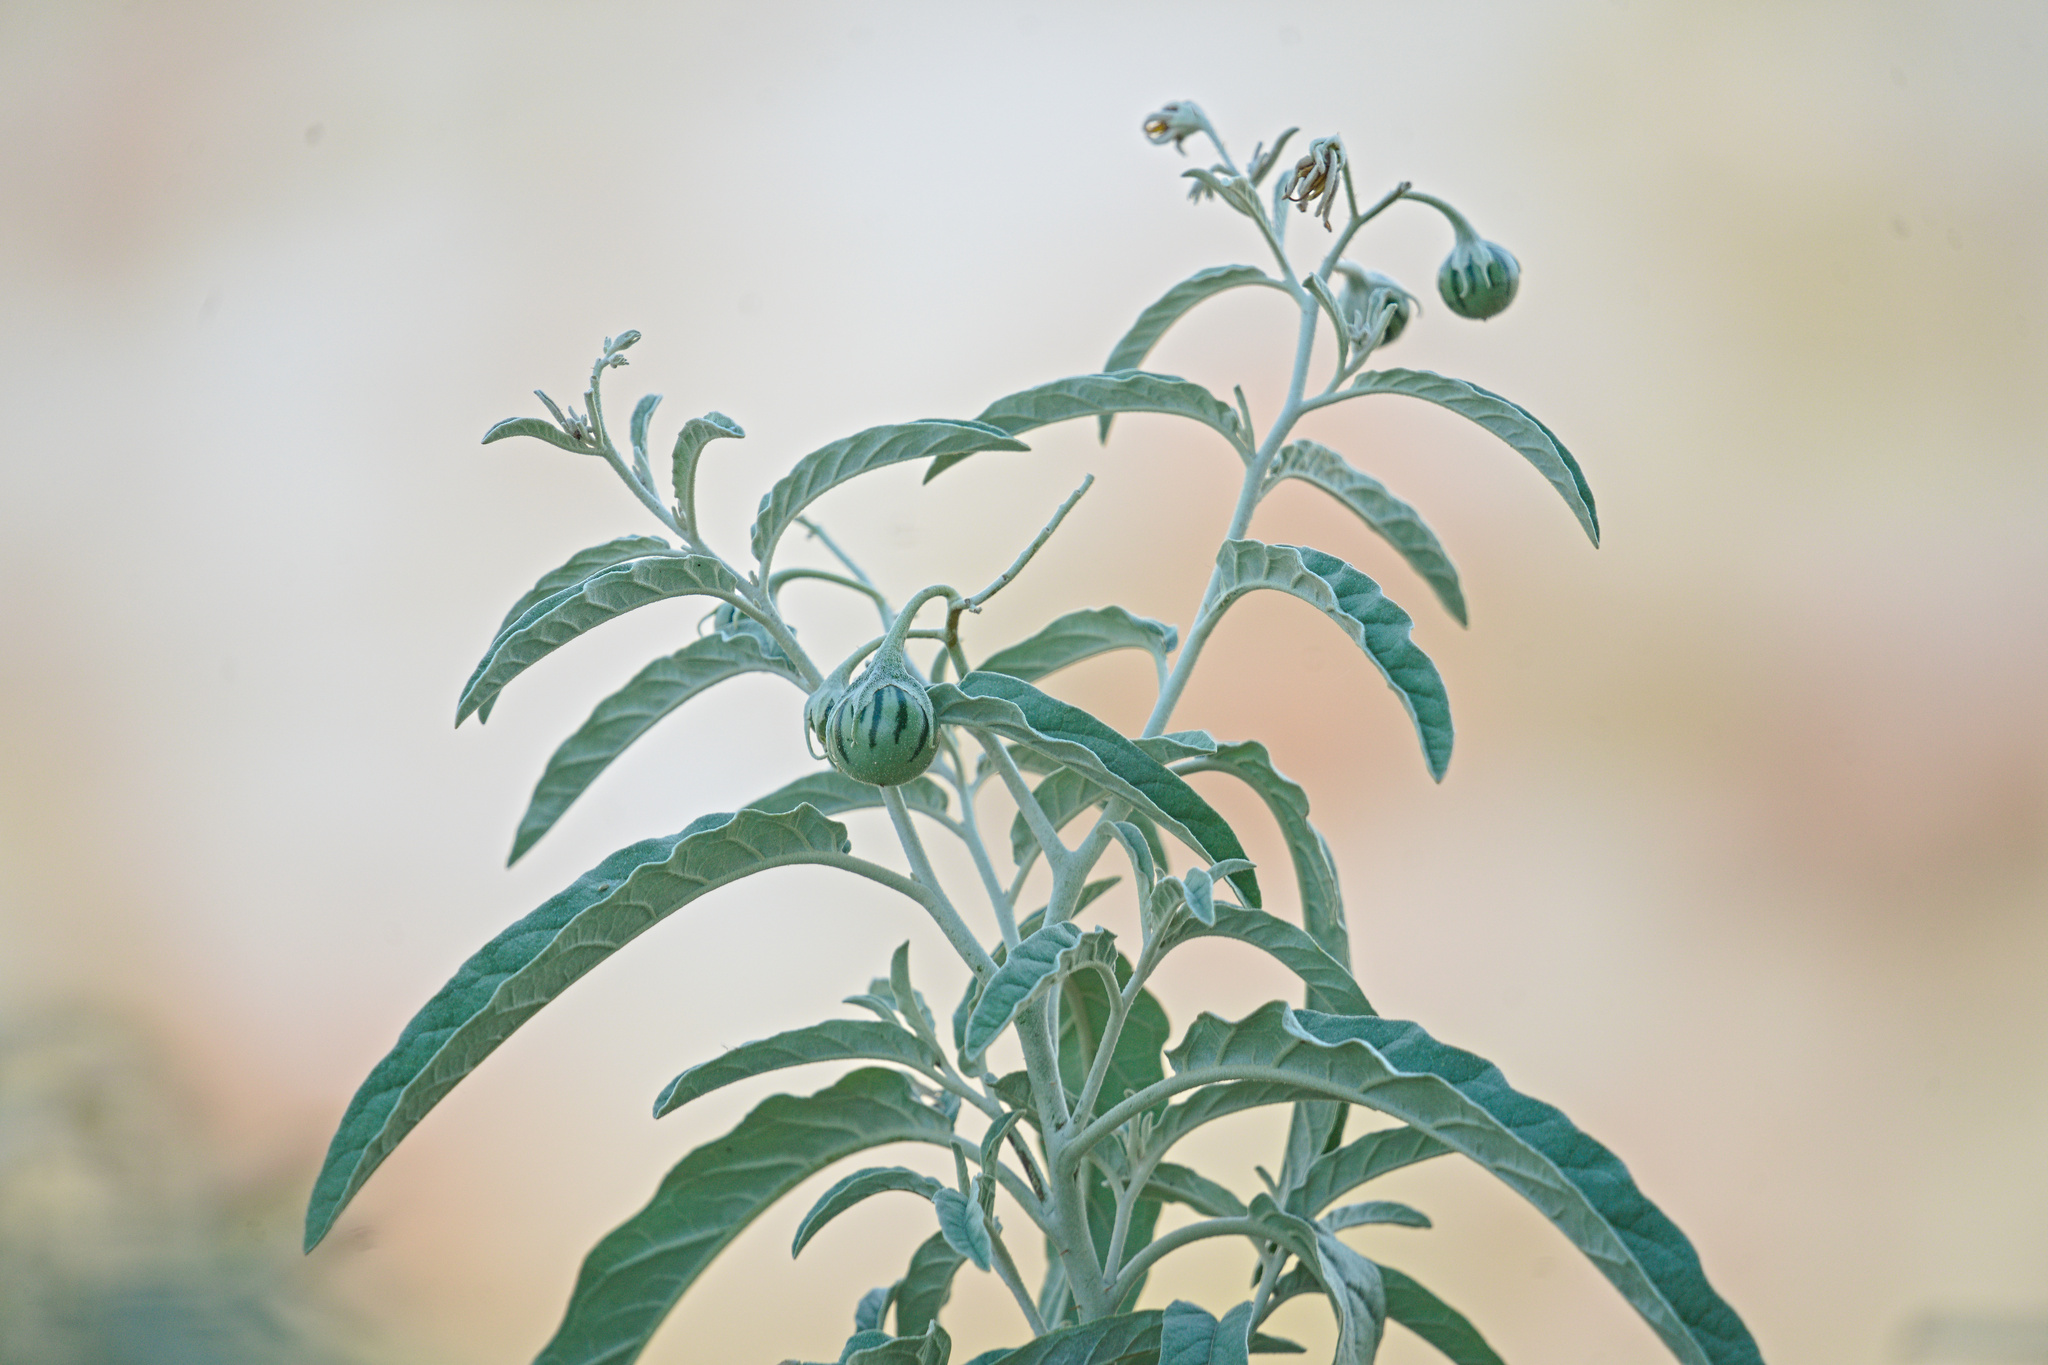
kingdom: Plantae
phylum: Tracheophyta
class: Magnoliopsida
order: Solanales
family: Solanaceae
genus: Solanum
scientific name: Solanum elaeagnifolium
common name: Silverleaf nightshade
